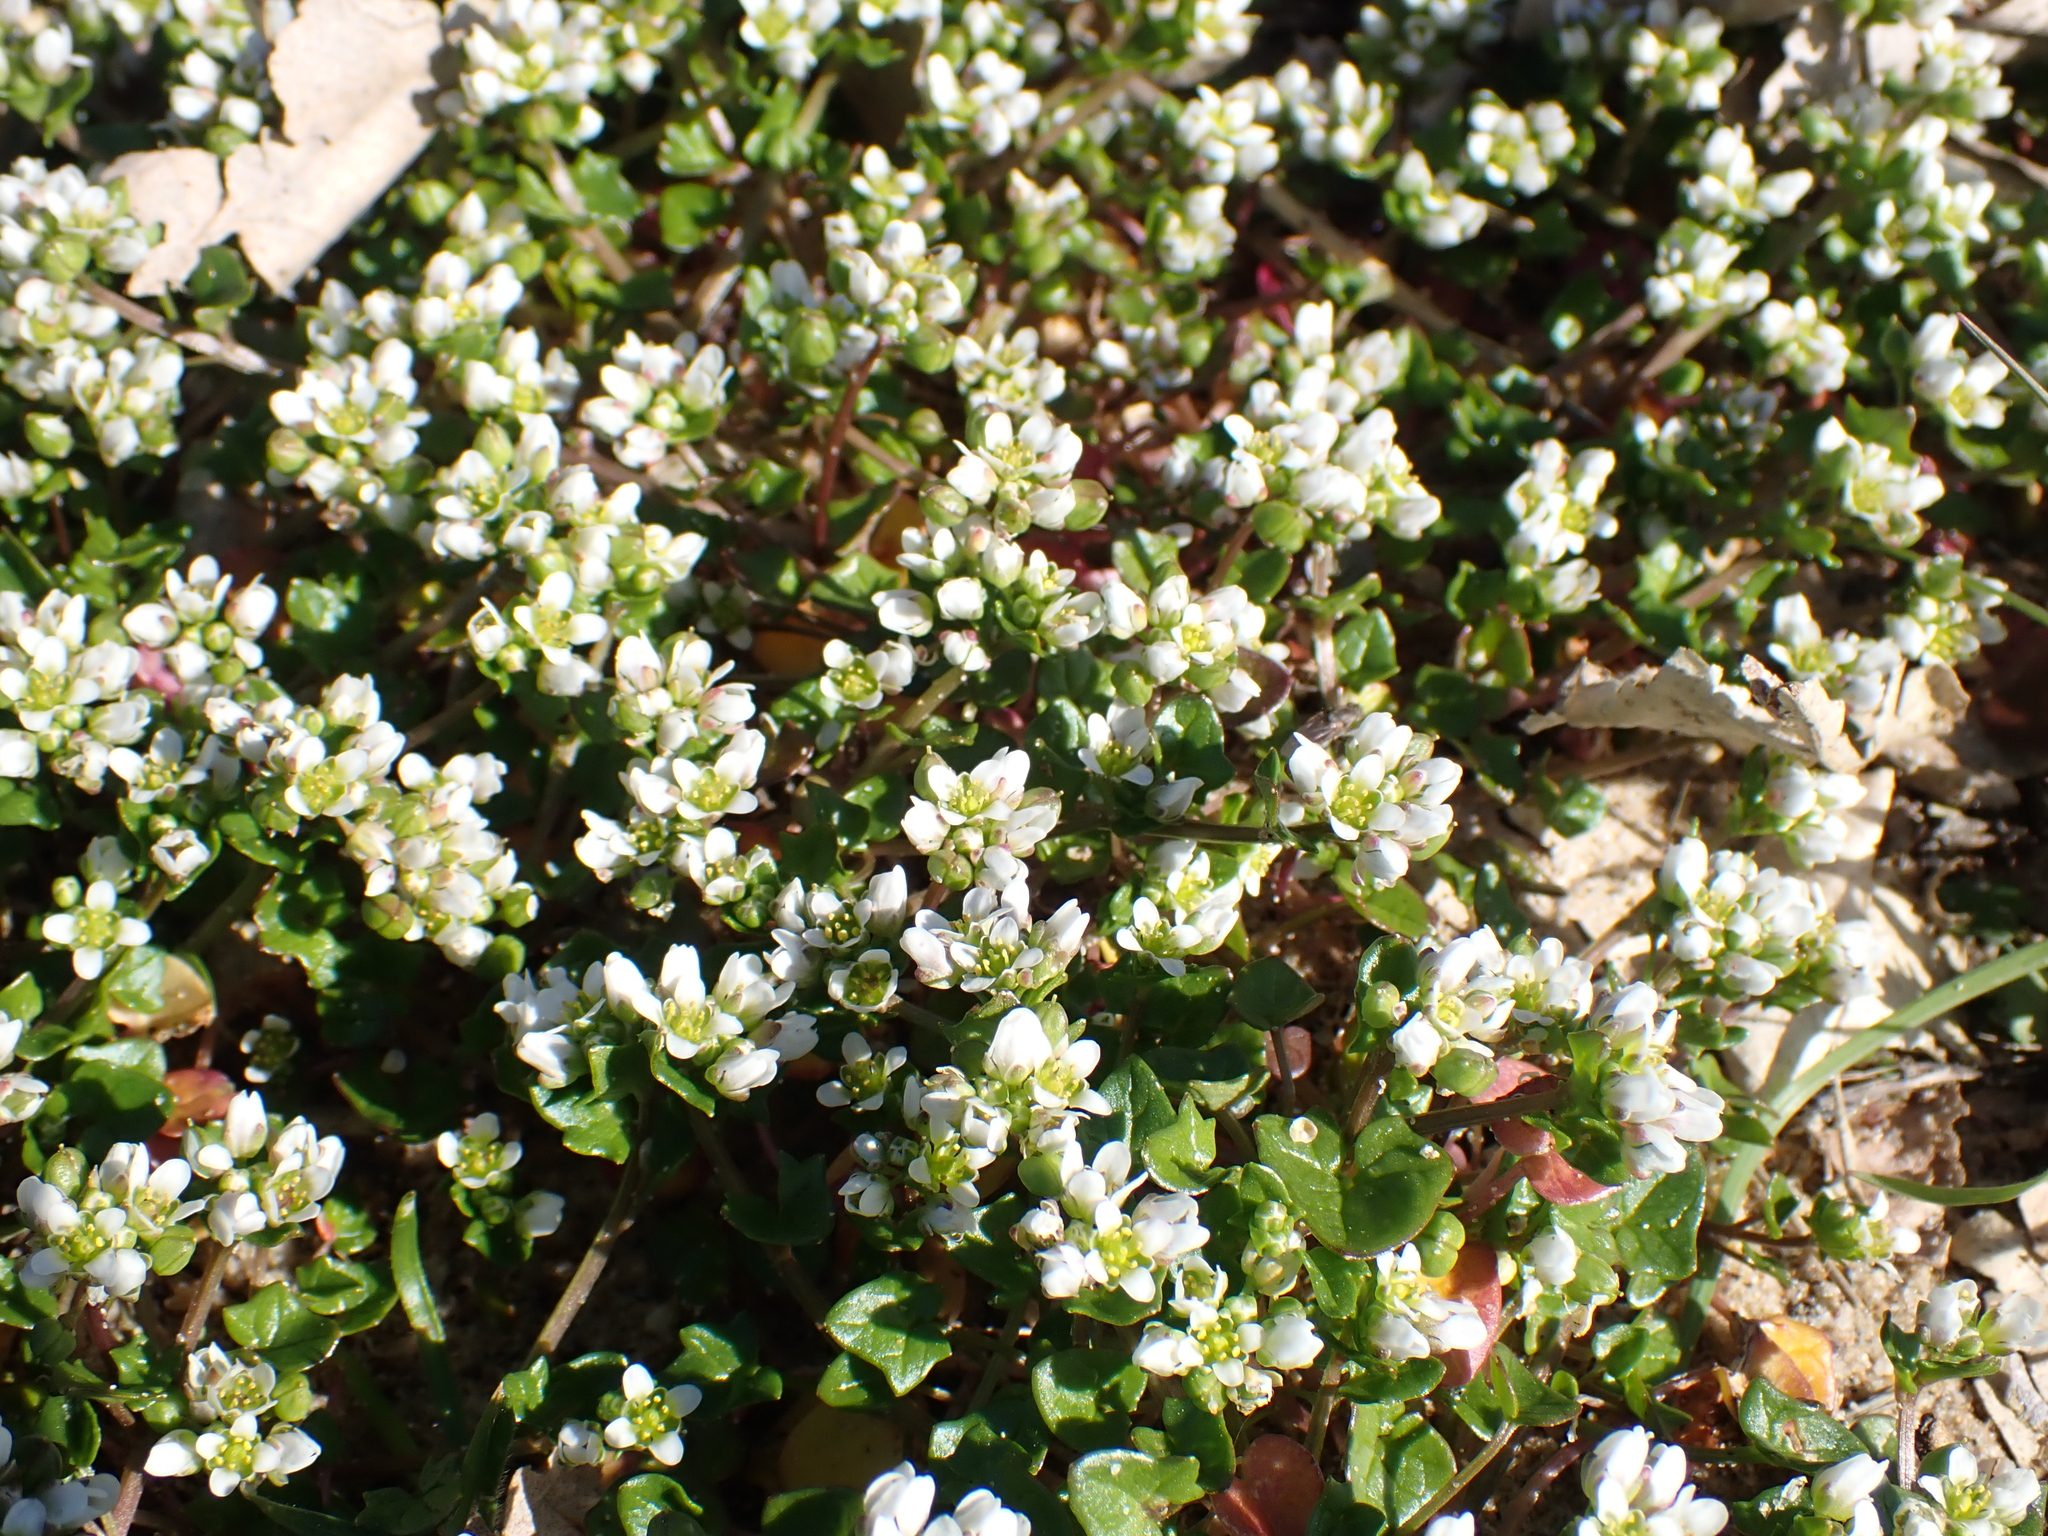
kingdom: Plantae
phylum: Tracheophyta
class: Magnoliopsida
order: Brassicales
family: Brassicaceae
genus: Cochlearia
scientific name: Cochlearia danica
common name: Early scurvygrass
